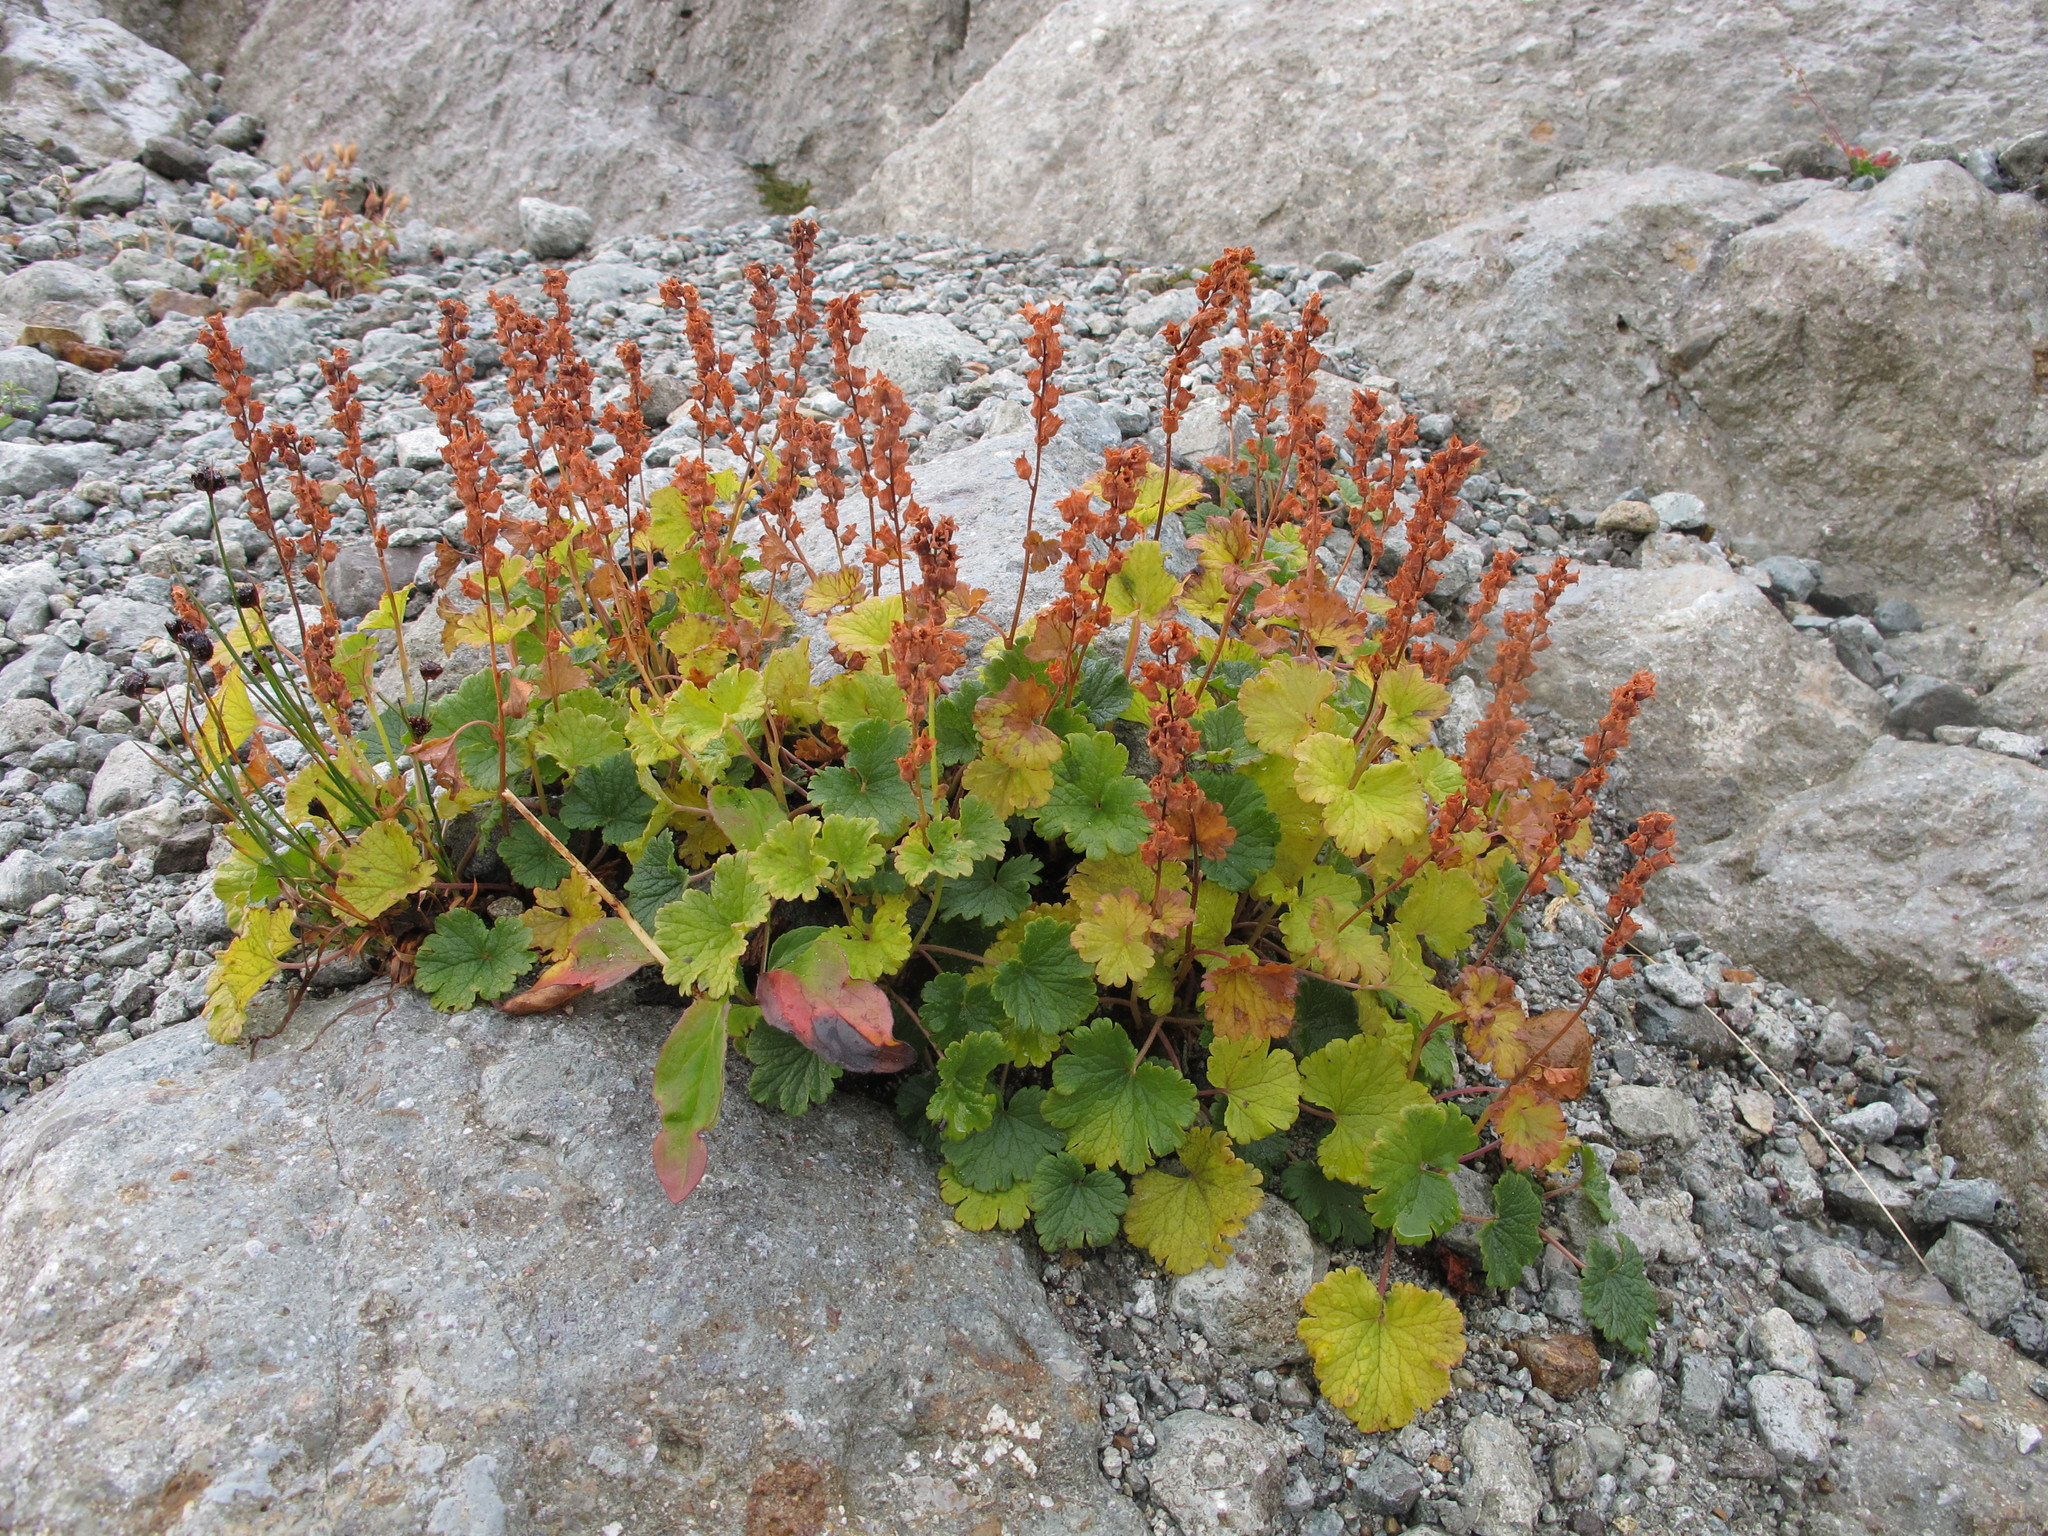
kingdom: Plantae
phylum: Tracheophyta
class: Magnoliopsida
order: Saxifragales
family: Saxifragaceae
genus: Elmera
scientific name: Elmera racemosa
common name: Elmera
